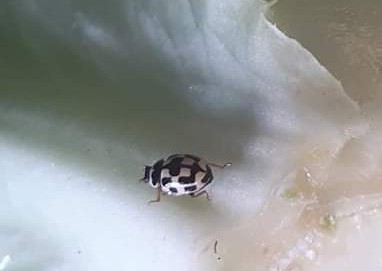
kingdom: Animalia
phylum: Arthropoda
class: Insecta
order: Coleoptera
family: Coccinellidae
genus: Propylaea
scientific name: Propylaea quatuordecimpunctata
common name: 14-spotted ladybird beetle
